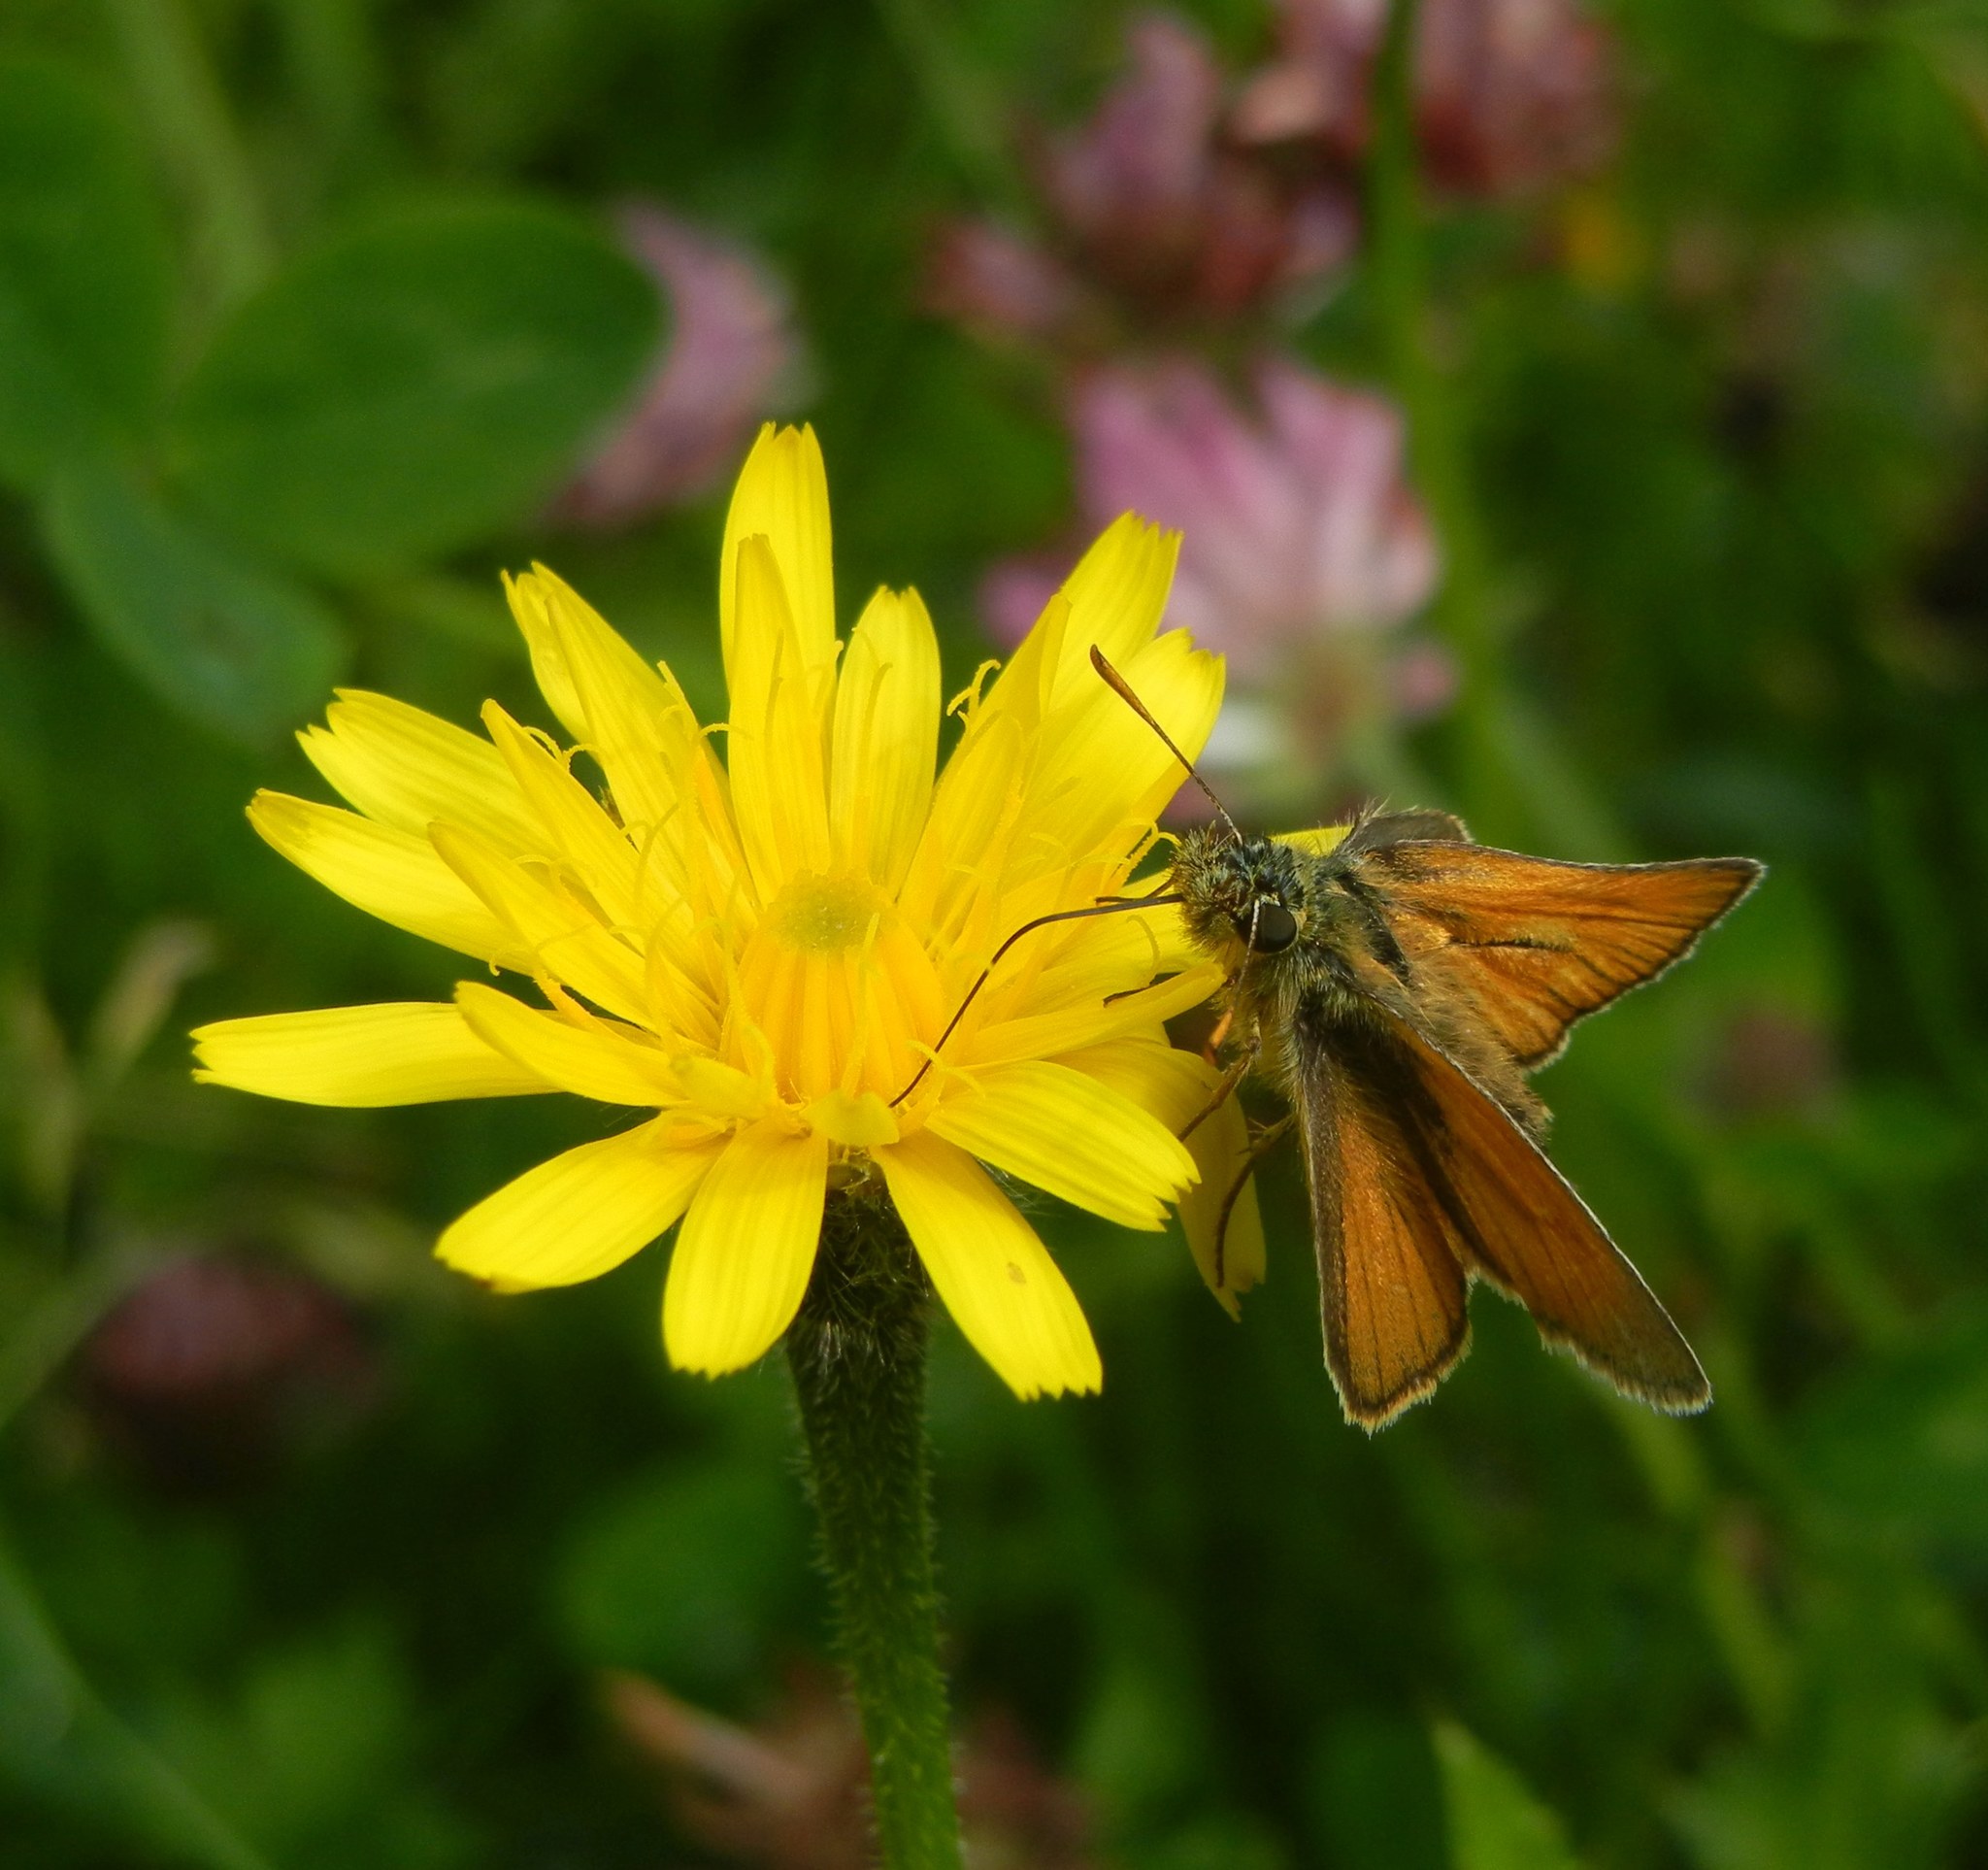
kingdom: Animalia
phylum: Arthropoda
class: Insecta
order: Lepidoptera
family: Hesperiidae
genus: Thymelicus
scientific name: Thymelicus sylvestris
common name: Small skipper
